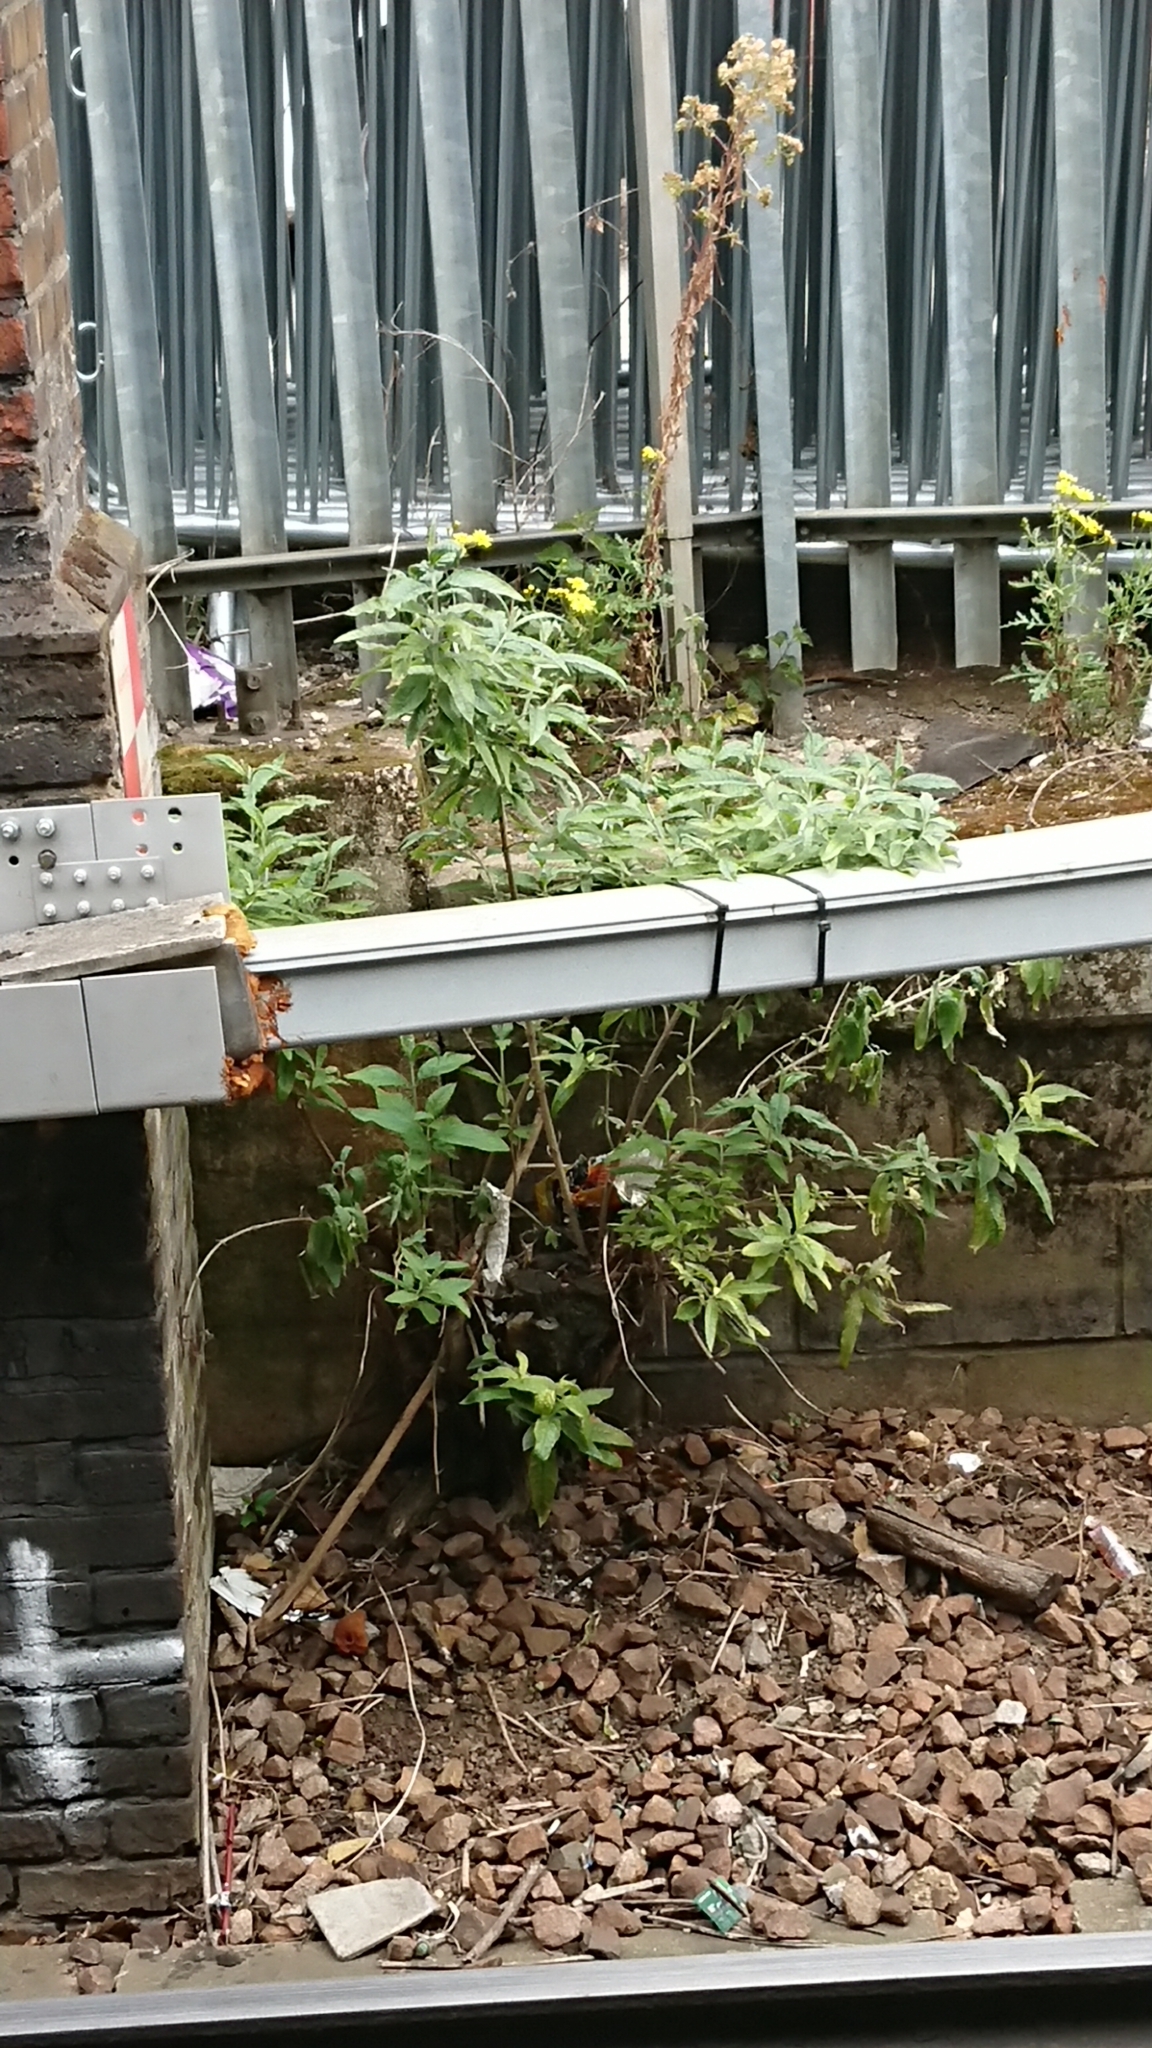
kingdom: Plantae
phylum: Tracheophyta
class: Magnoliopsida
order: Lamiales
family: Scrophulariaceae
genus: Buddleja
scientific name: Buddleja davidii
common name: Butterfly-bush
